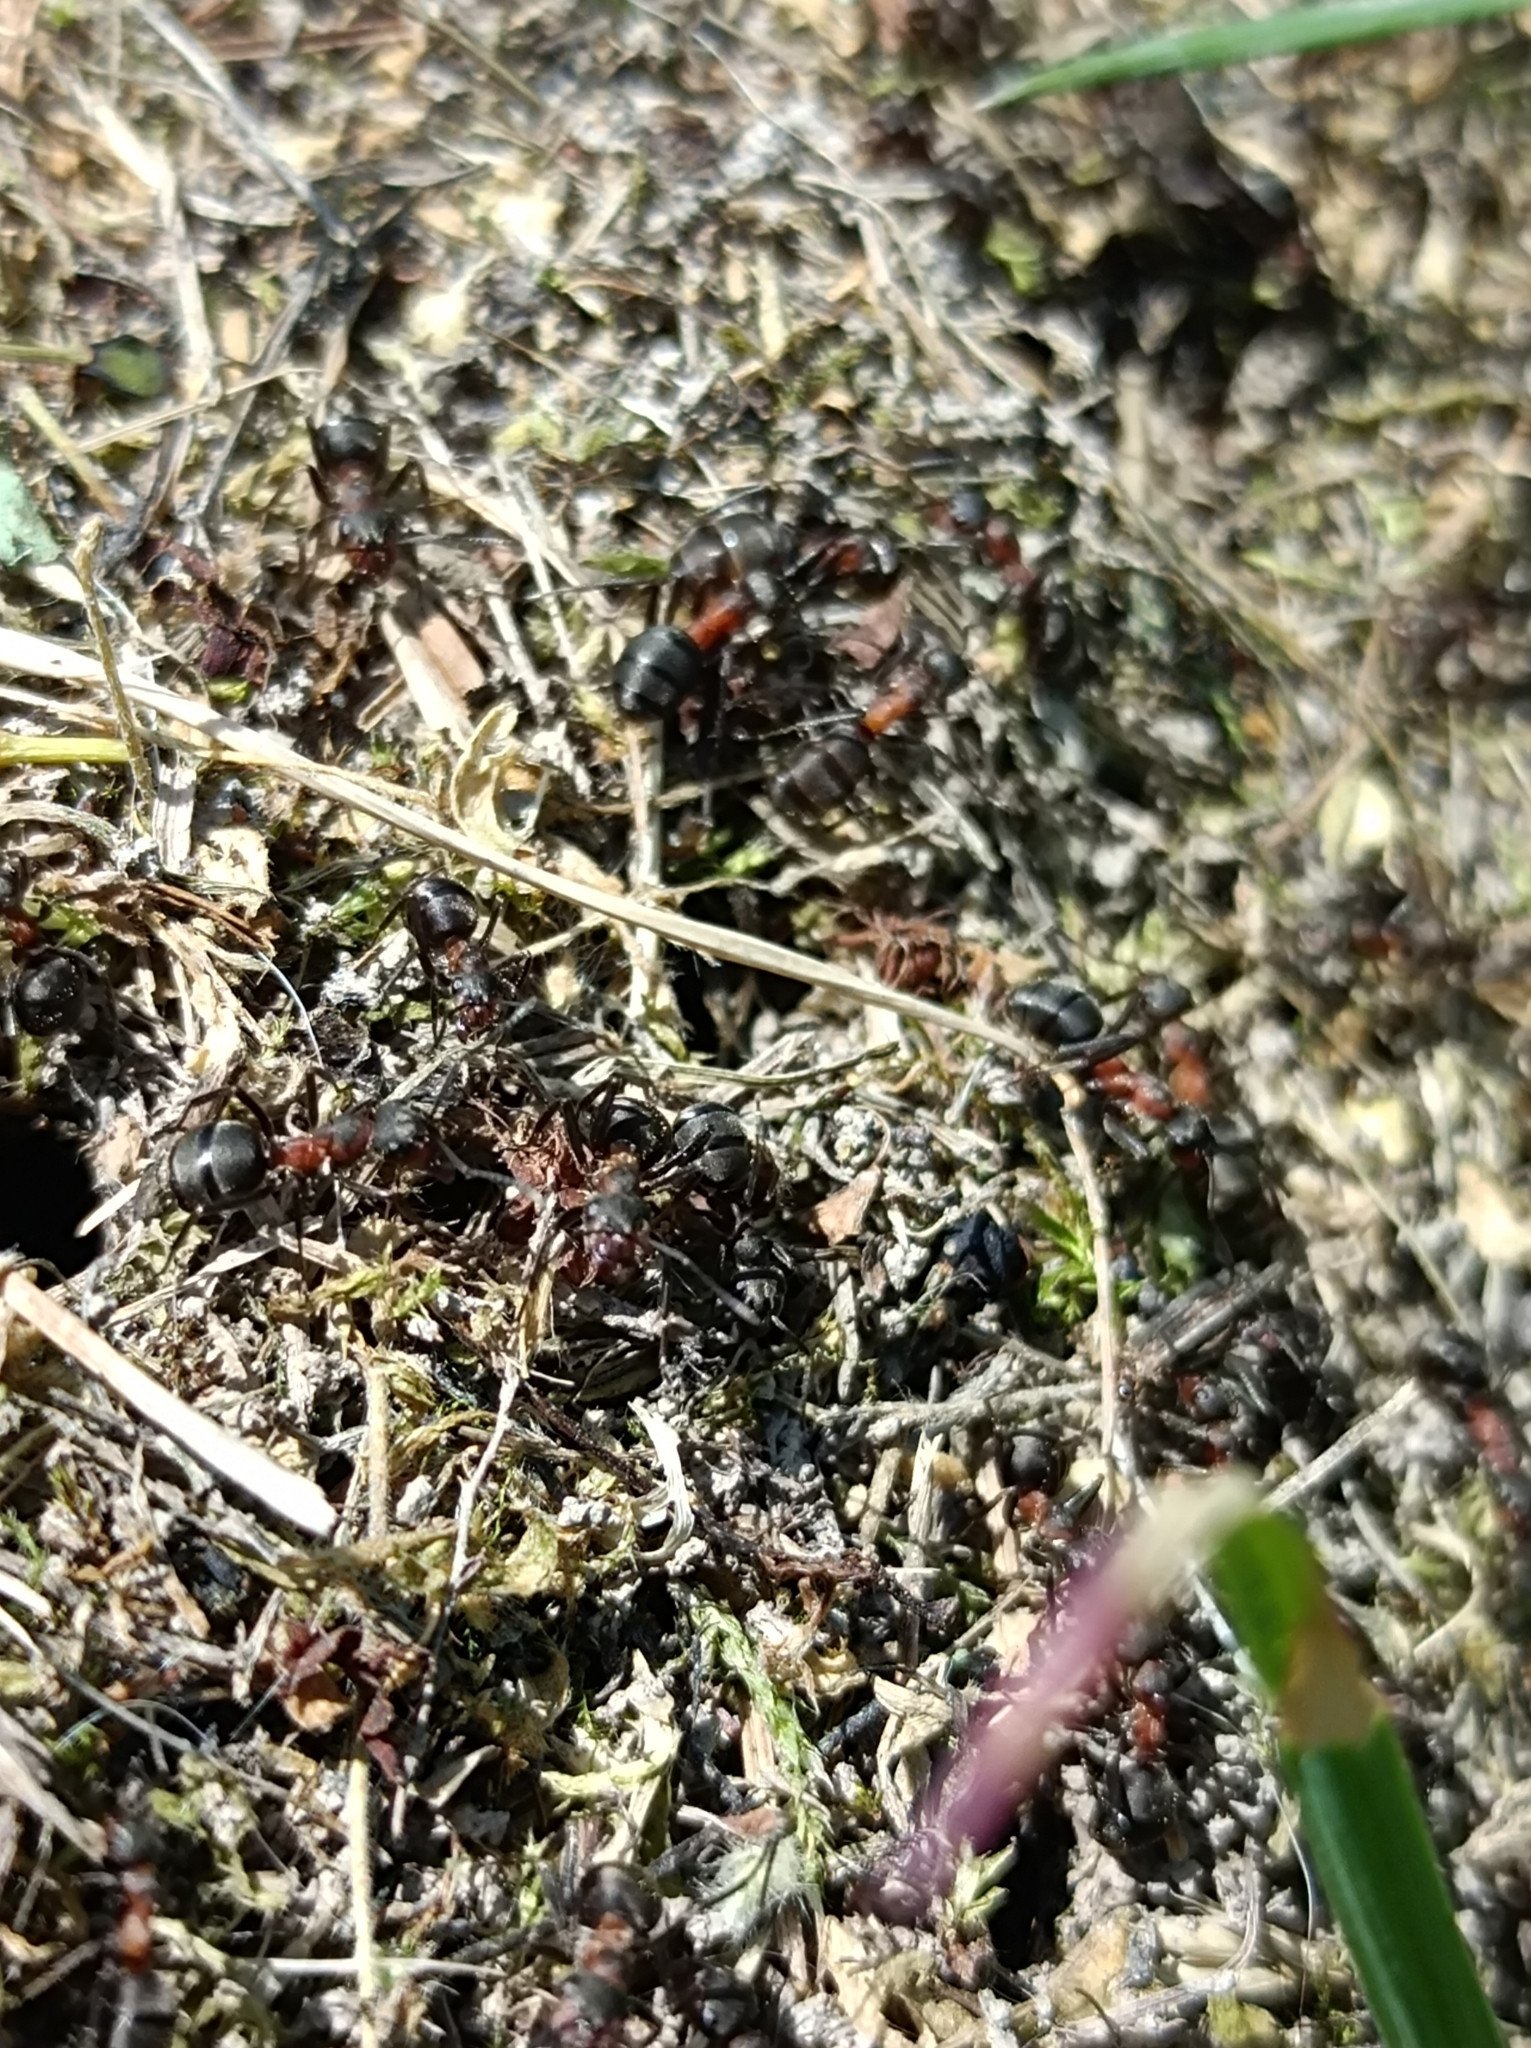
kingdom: Animalia
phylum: Arthropoda
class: Insecta
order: Hymenoptera
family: Formicidae
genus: Formica
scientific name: Formica pratensis
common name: European red wood ant
